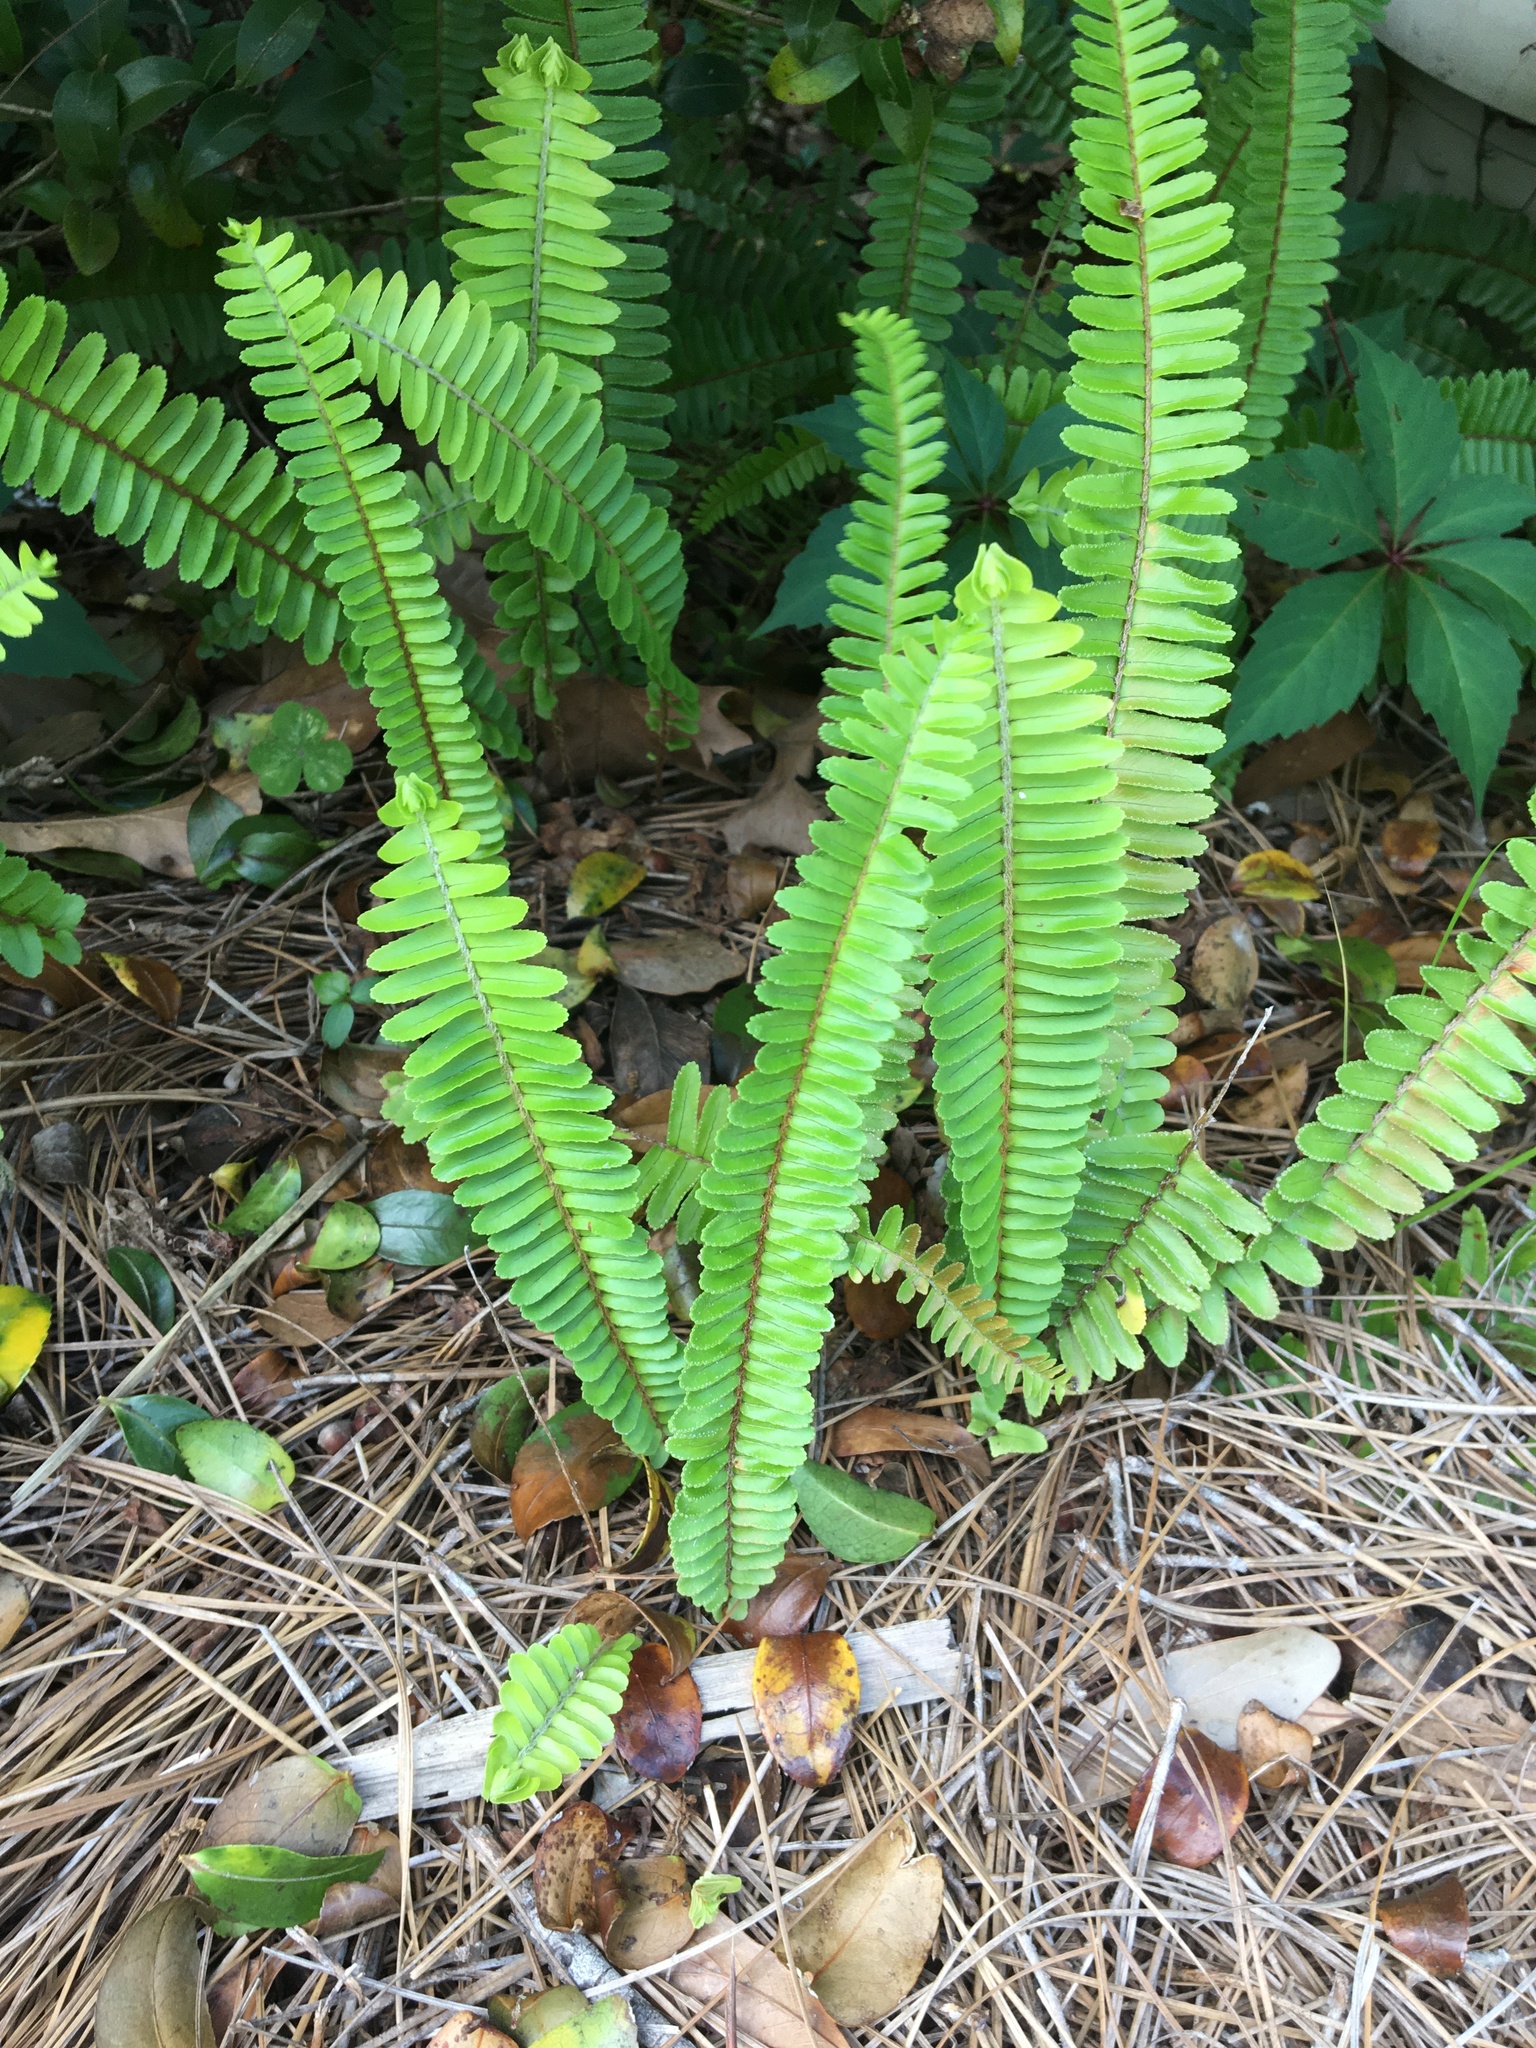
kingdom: Plantae
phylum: Tracheophyta
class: Polypodiopsida
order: Polypodiales
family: Nephrolepidaceae
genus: Nephrolepis
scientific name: Nephrolepis cordifolia
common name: Narrow swordfern
